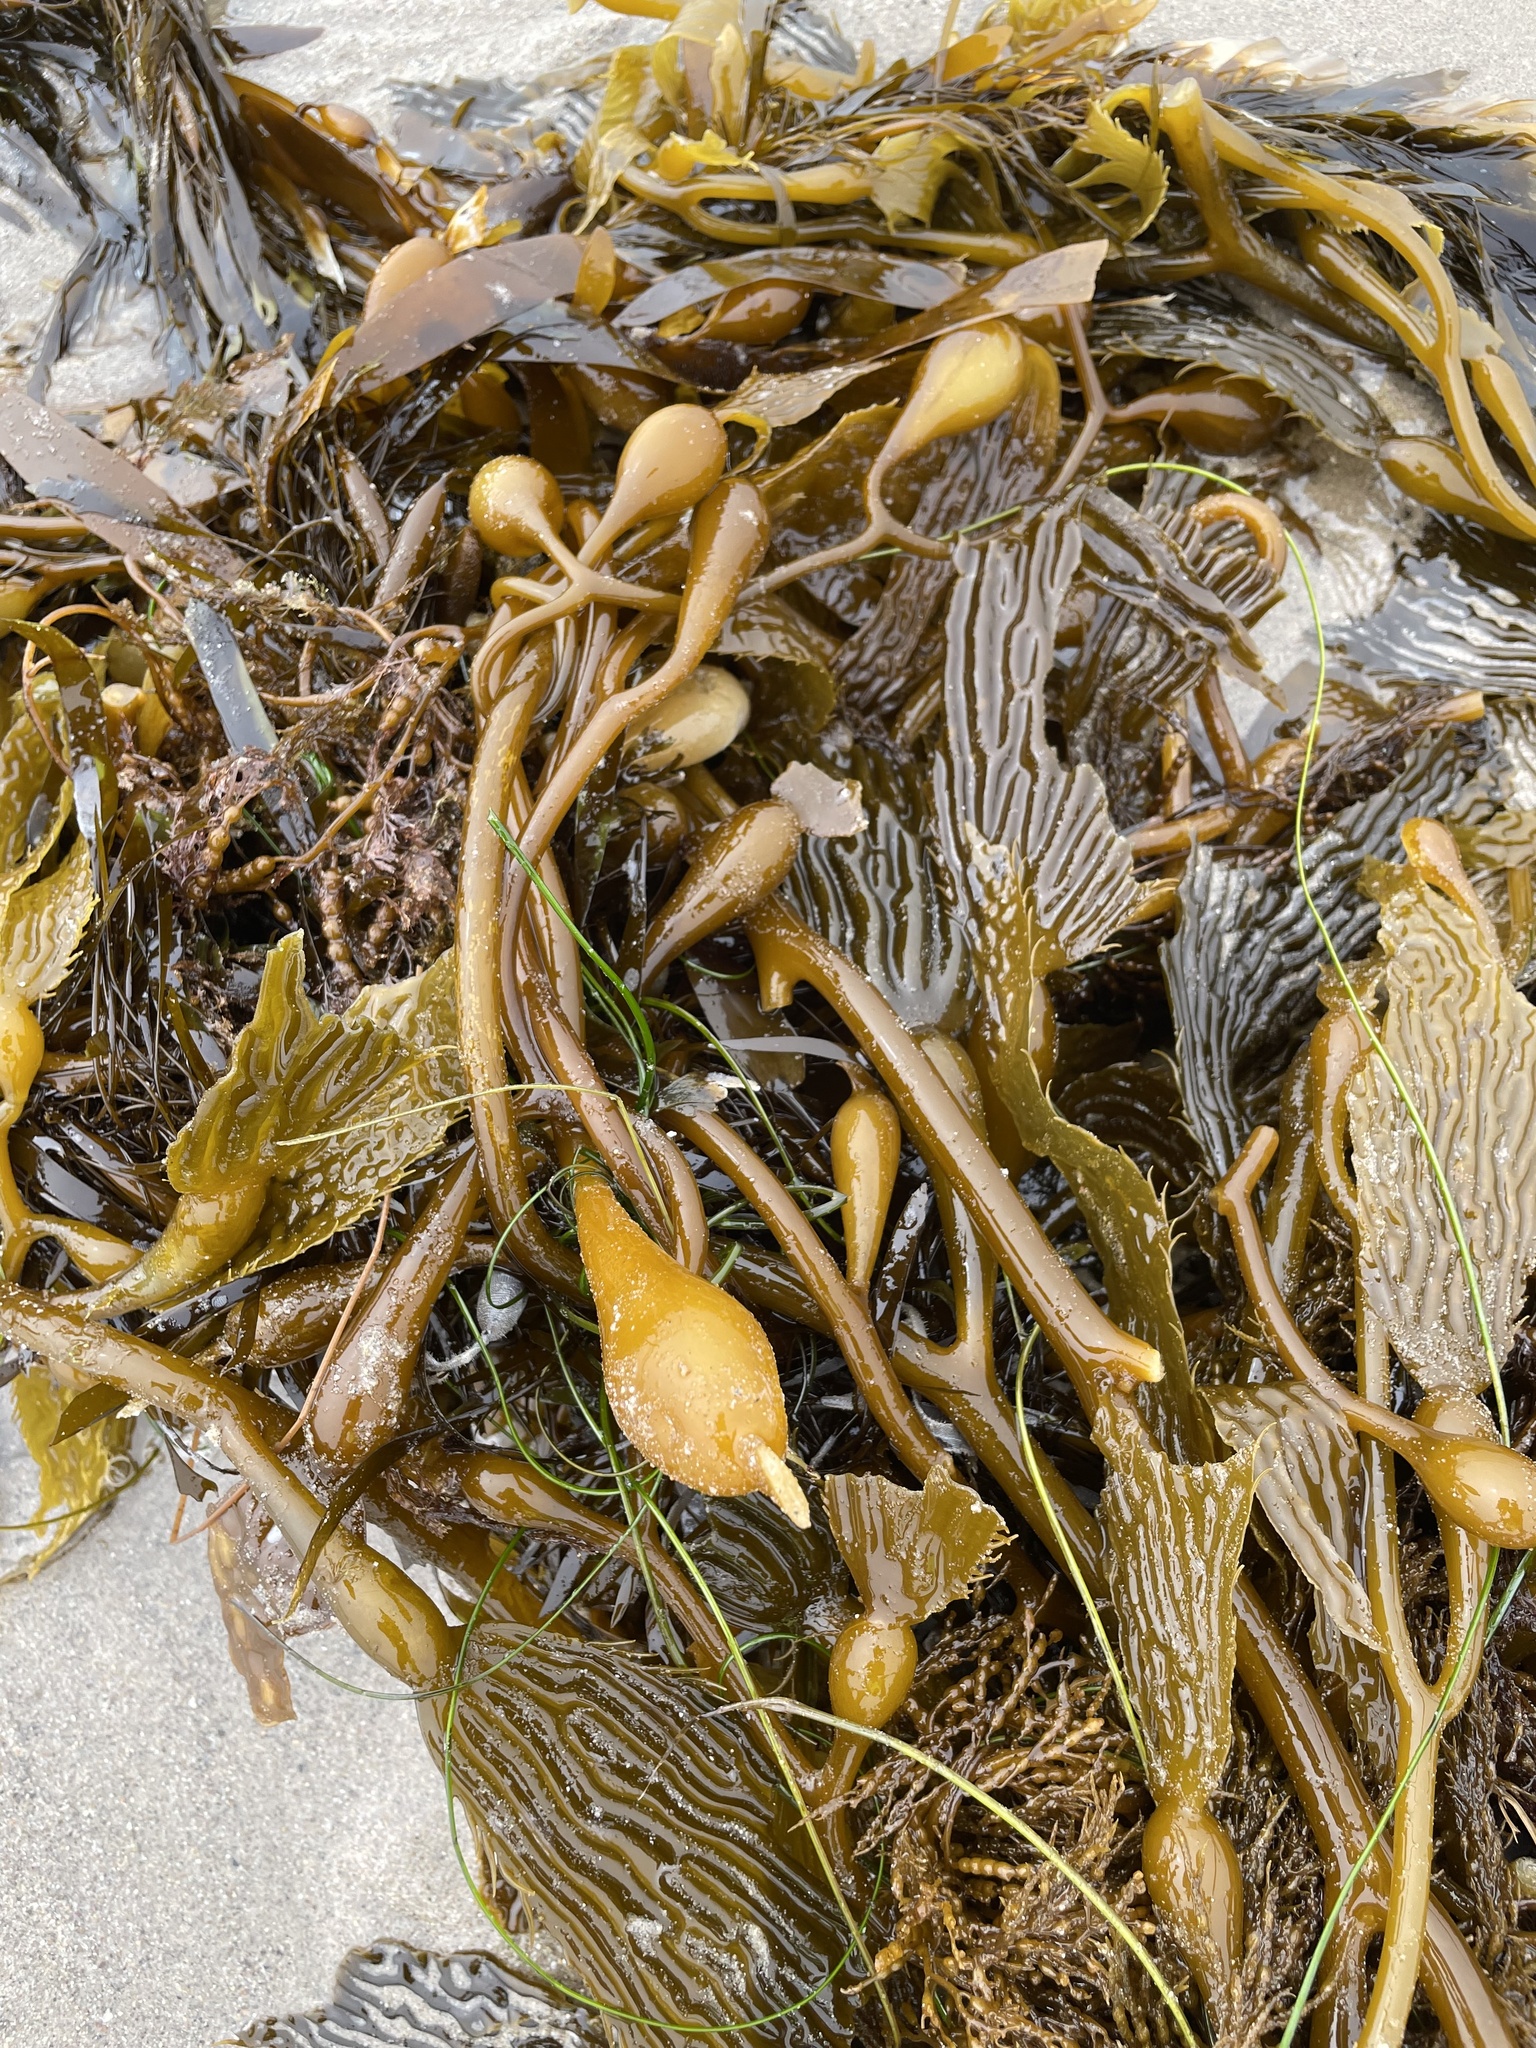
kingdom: Chromista
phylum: Ochrophyta
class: Phaeophyceae
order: Laminariales
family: Laminariaceae
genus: Macrocystis
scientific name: Macrocystis pyrifera
